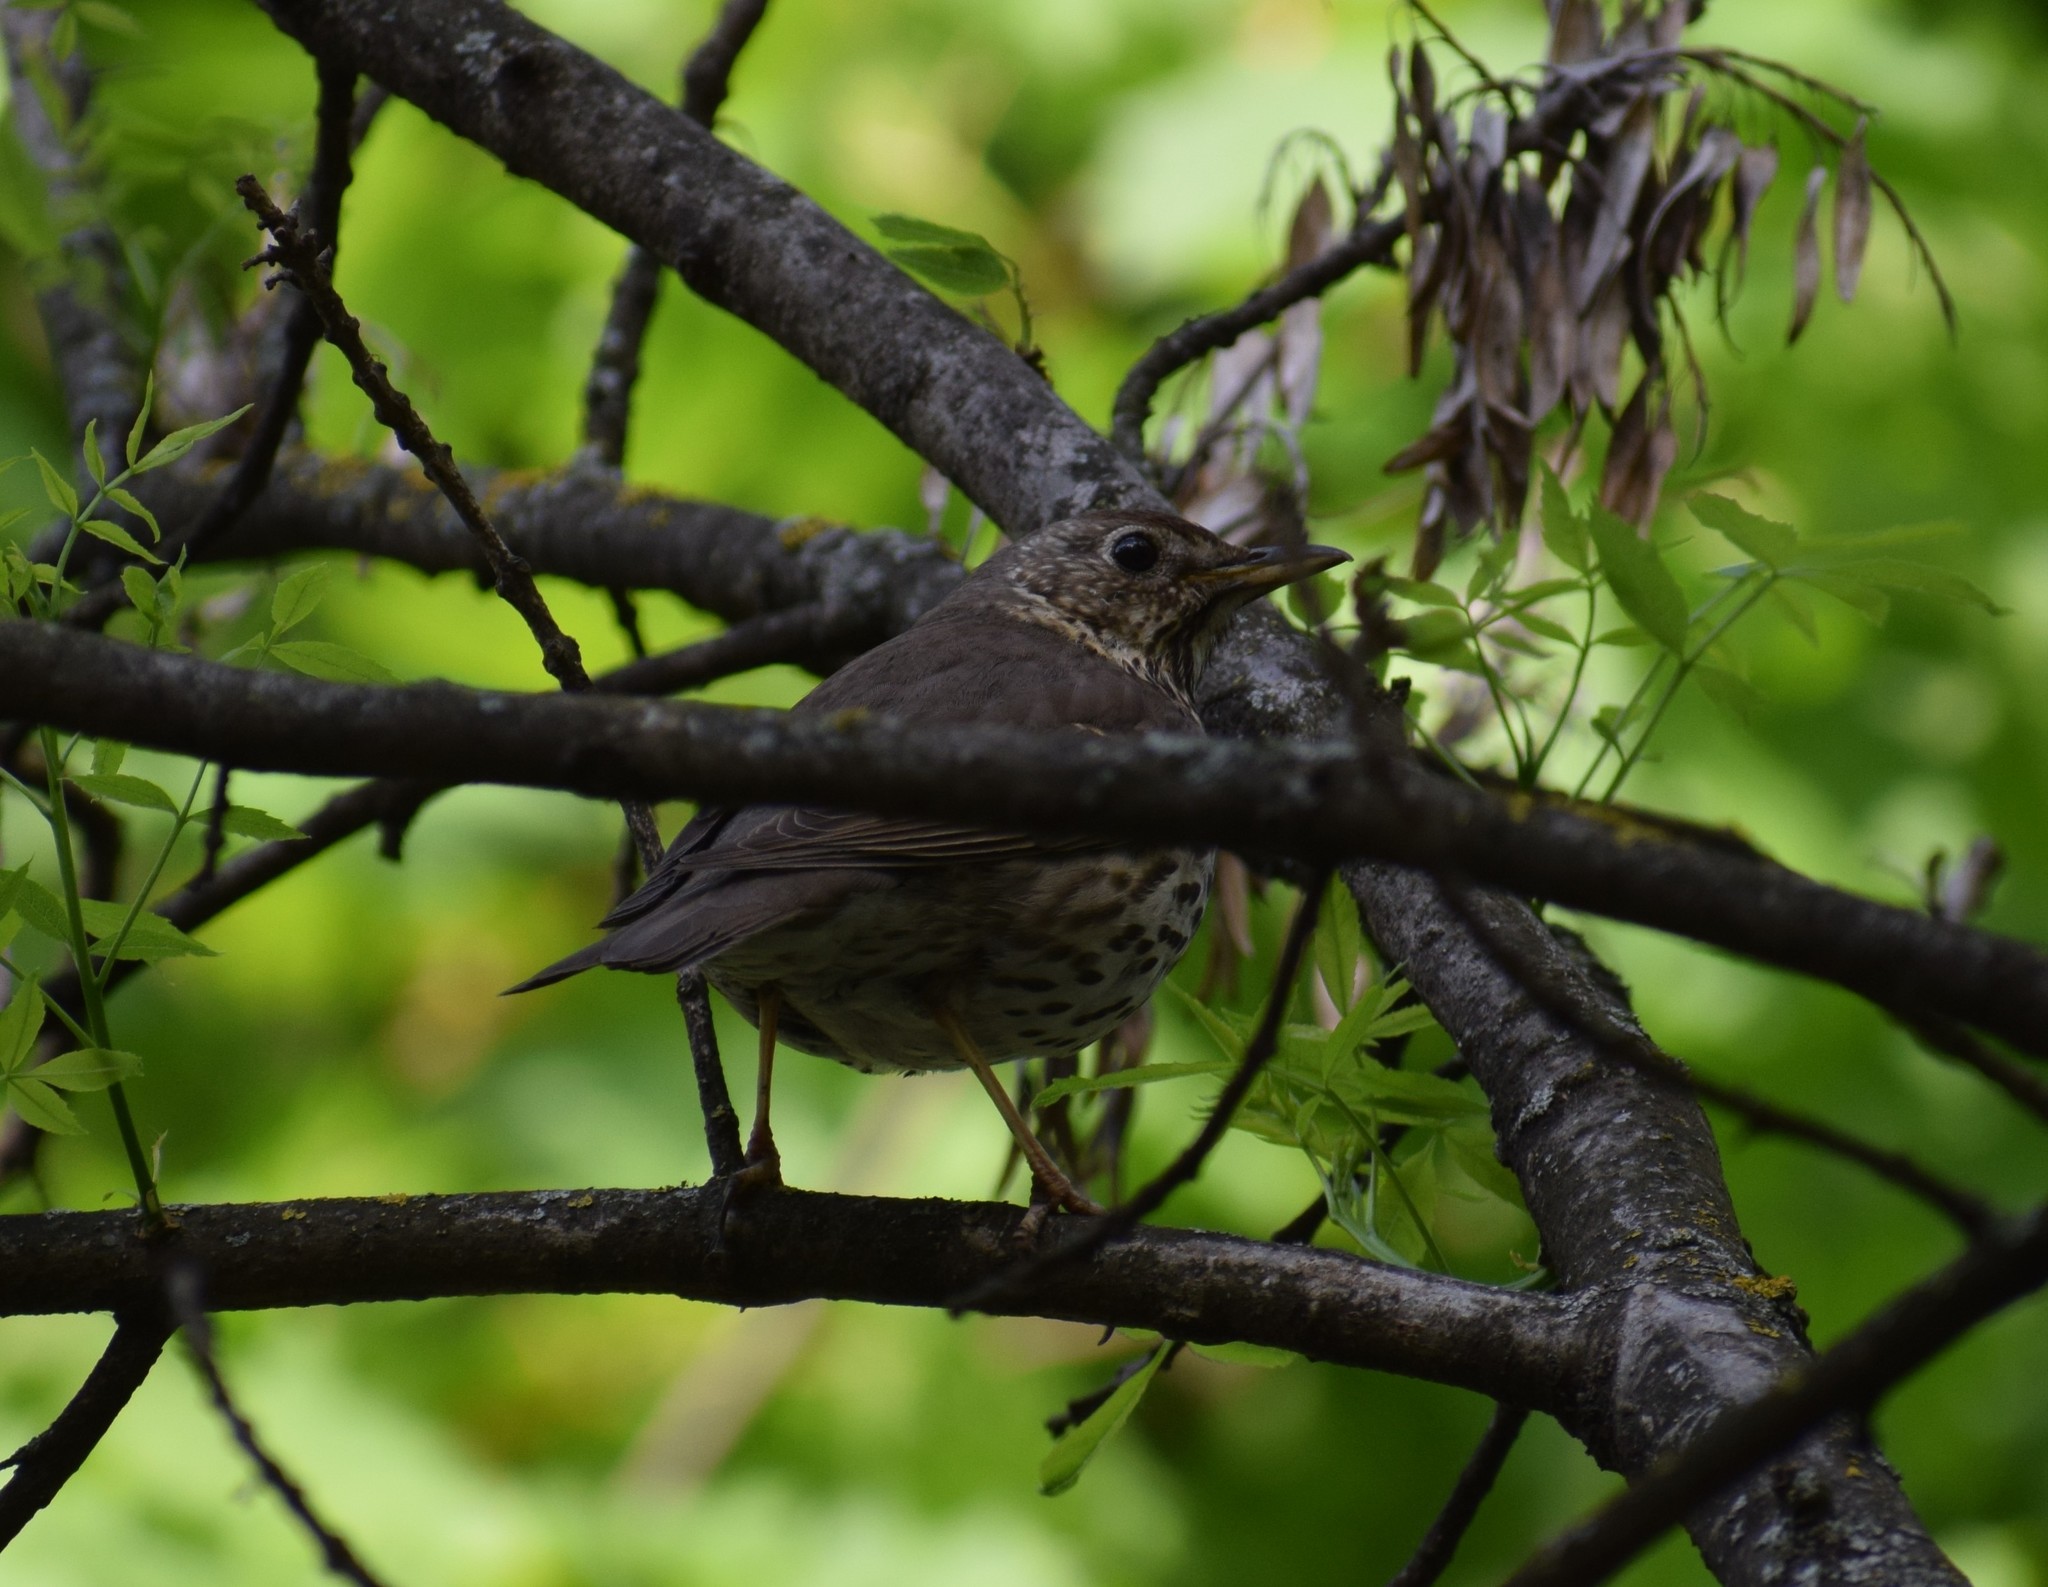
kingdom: Animalia
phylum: Chordata
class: Aves
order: Passeriformes
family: Turdidae
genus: Turdus
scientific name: Turdus viscivorus
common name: Mistle thrush
